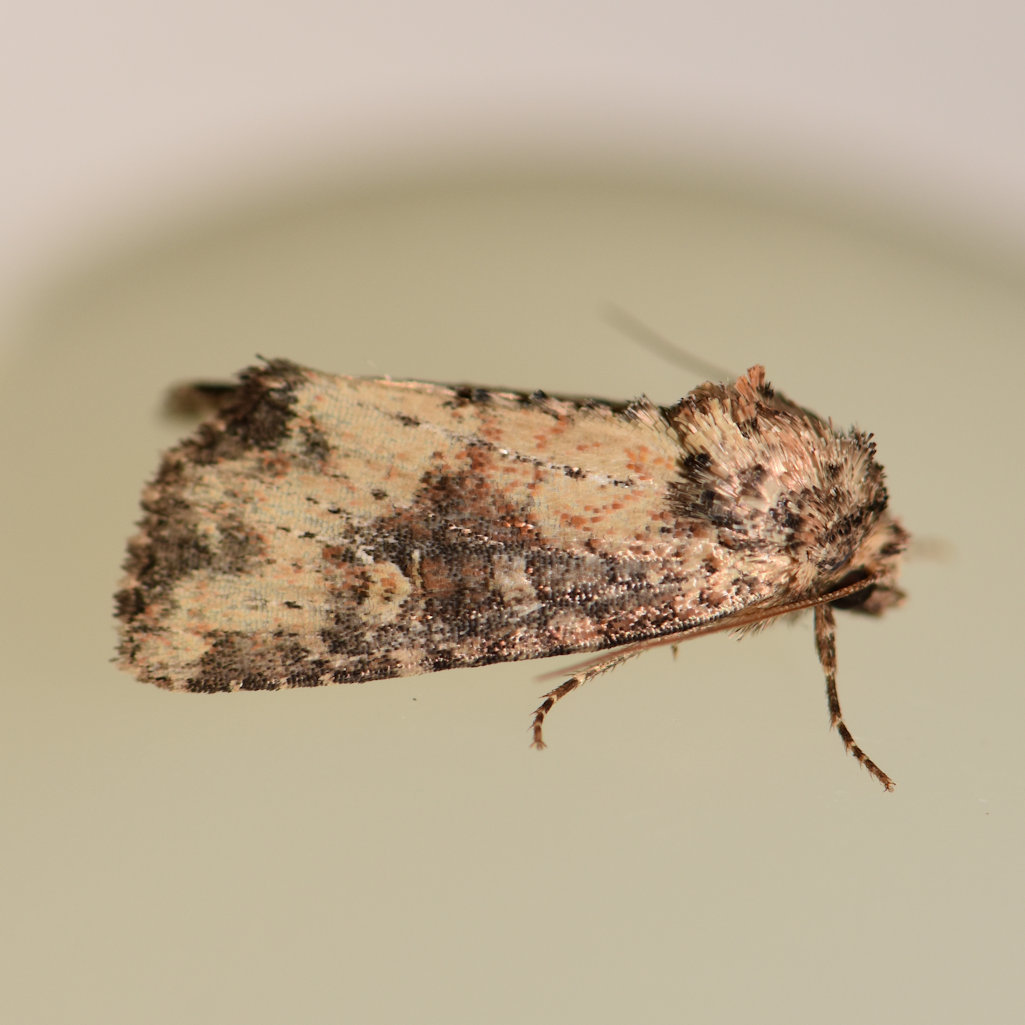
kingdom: Animalia
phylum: Arthropoda
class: Insecta
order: Lepidoptera
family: Noctuidae
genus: Mesapamea
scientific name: Mesapamea fractilinea
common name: Broken-lined brocade moth
